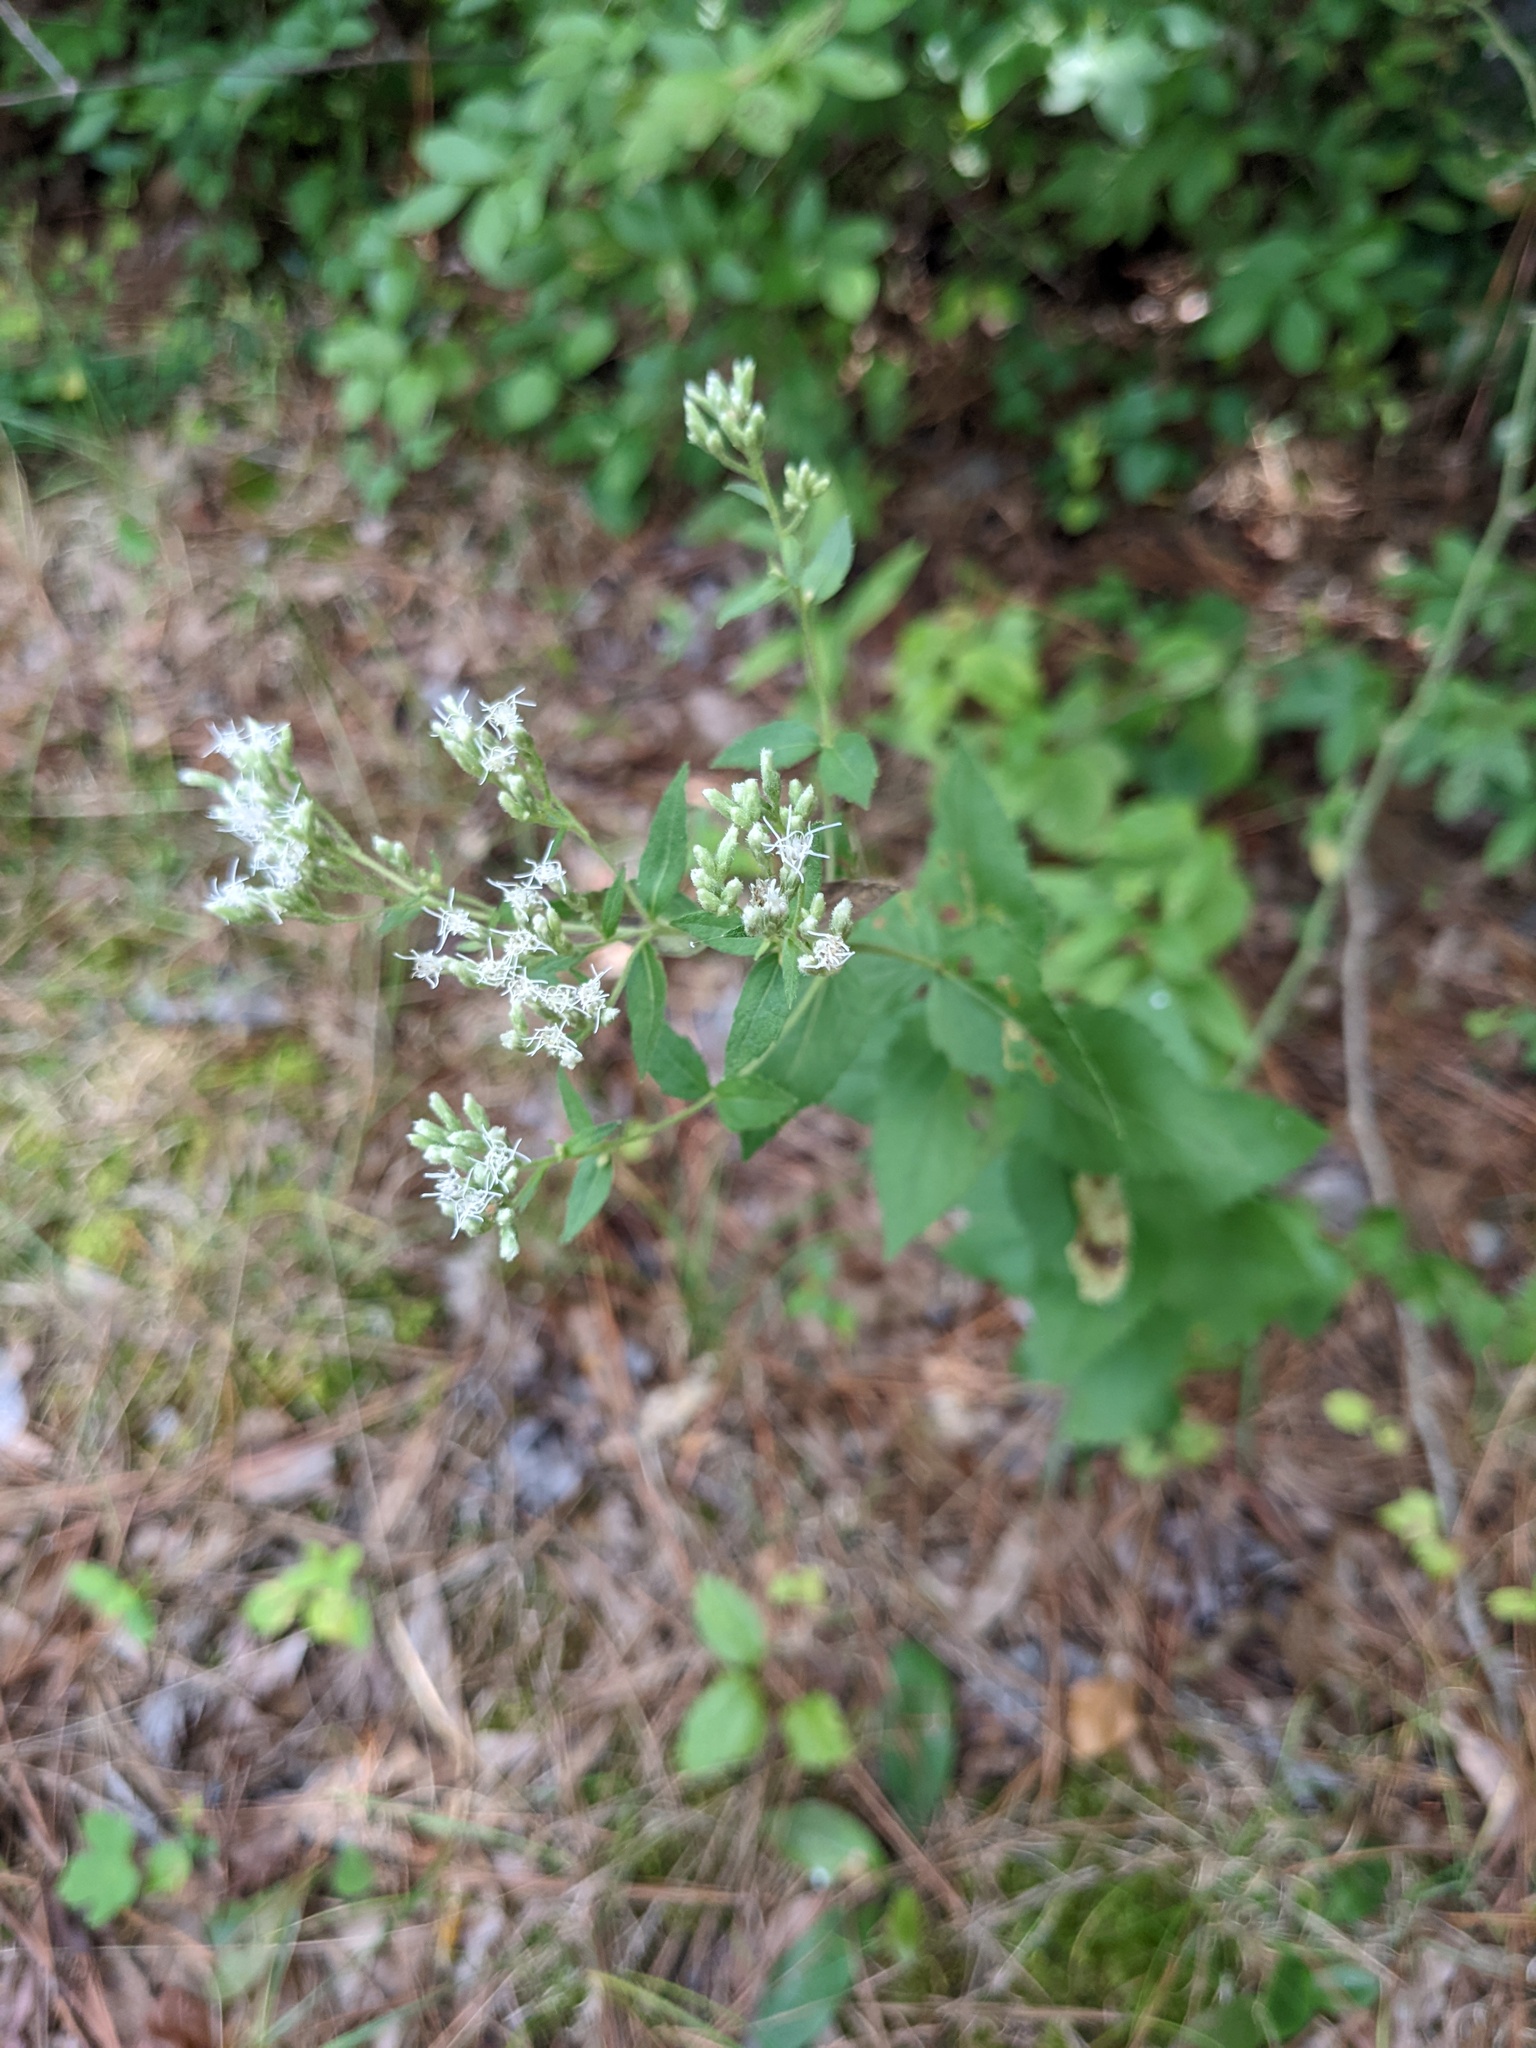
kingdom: Plantae
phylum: Tracheophyta
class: Magnoliopsida
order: Asterales
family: Asteraceae
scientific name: Asteraceae
